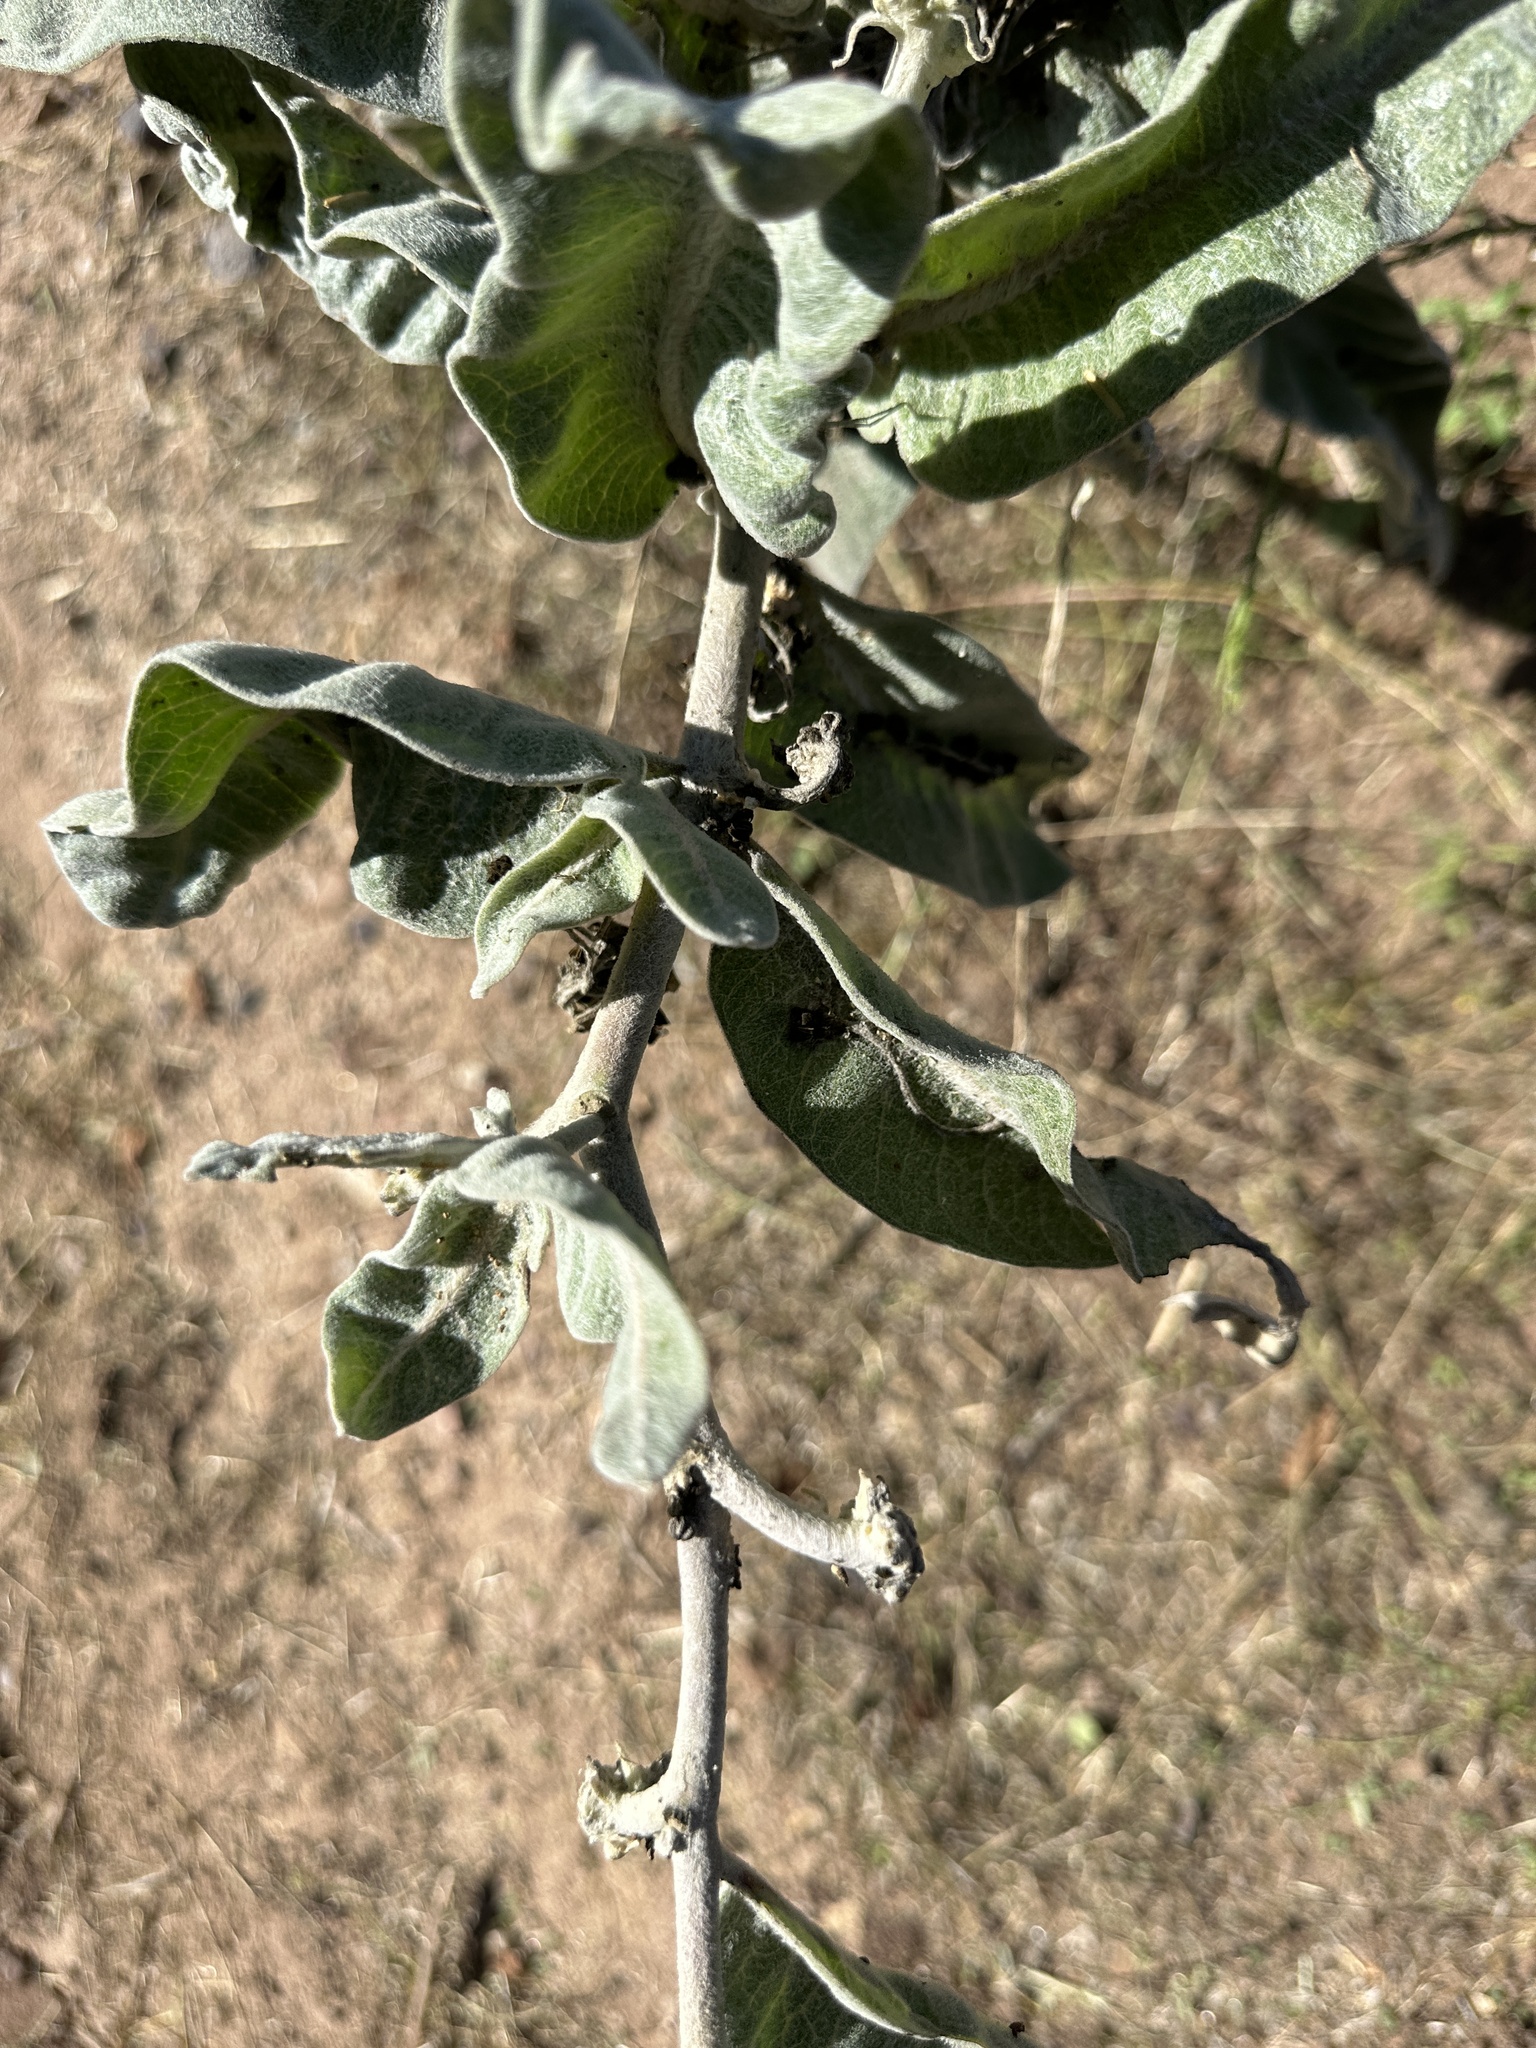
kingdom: Plantae
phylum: Tracheophyta
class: Magnoliopsida
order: Gentianales
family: Apocynaceae
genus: Asclepias
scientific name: Asclepias eriocarpa
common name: Indian milkweed
